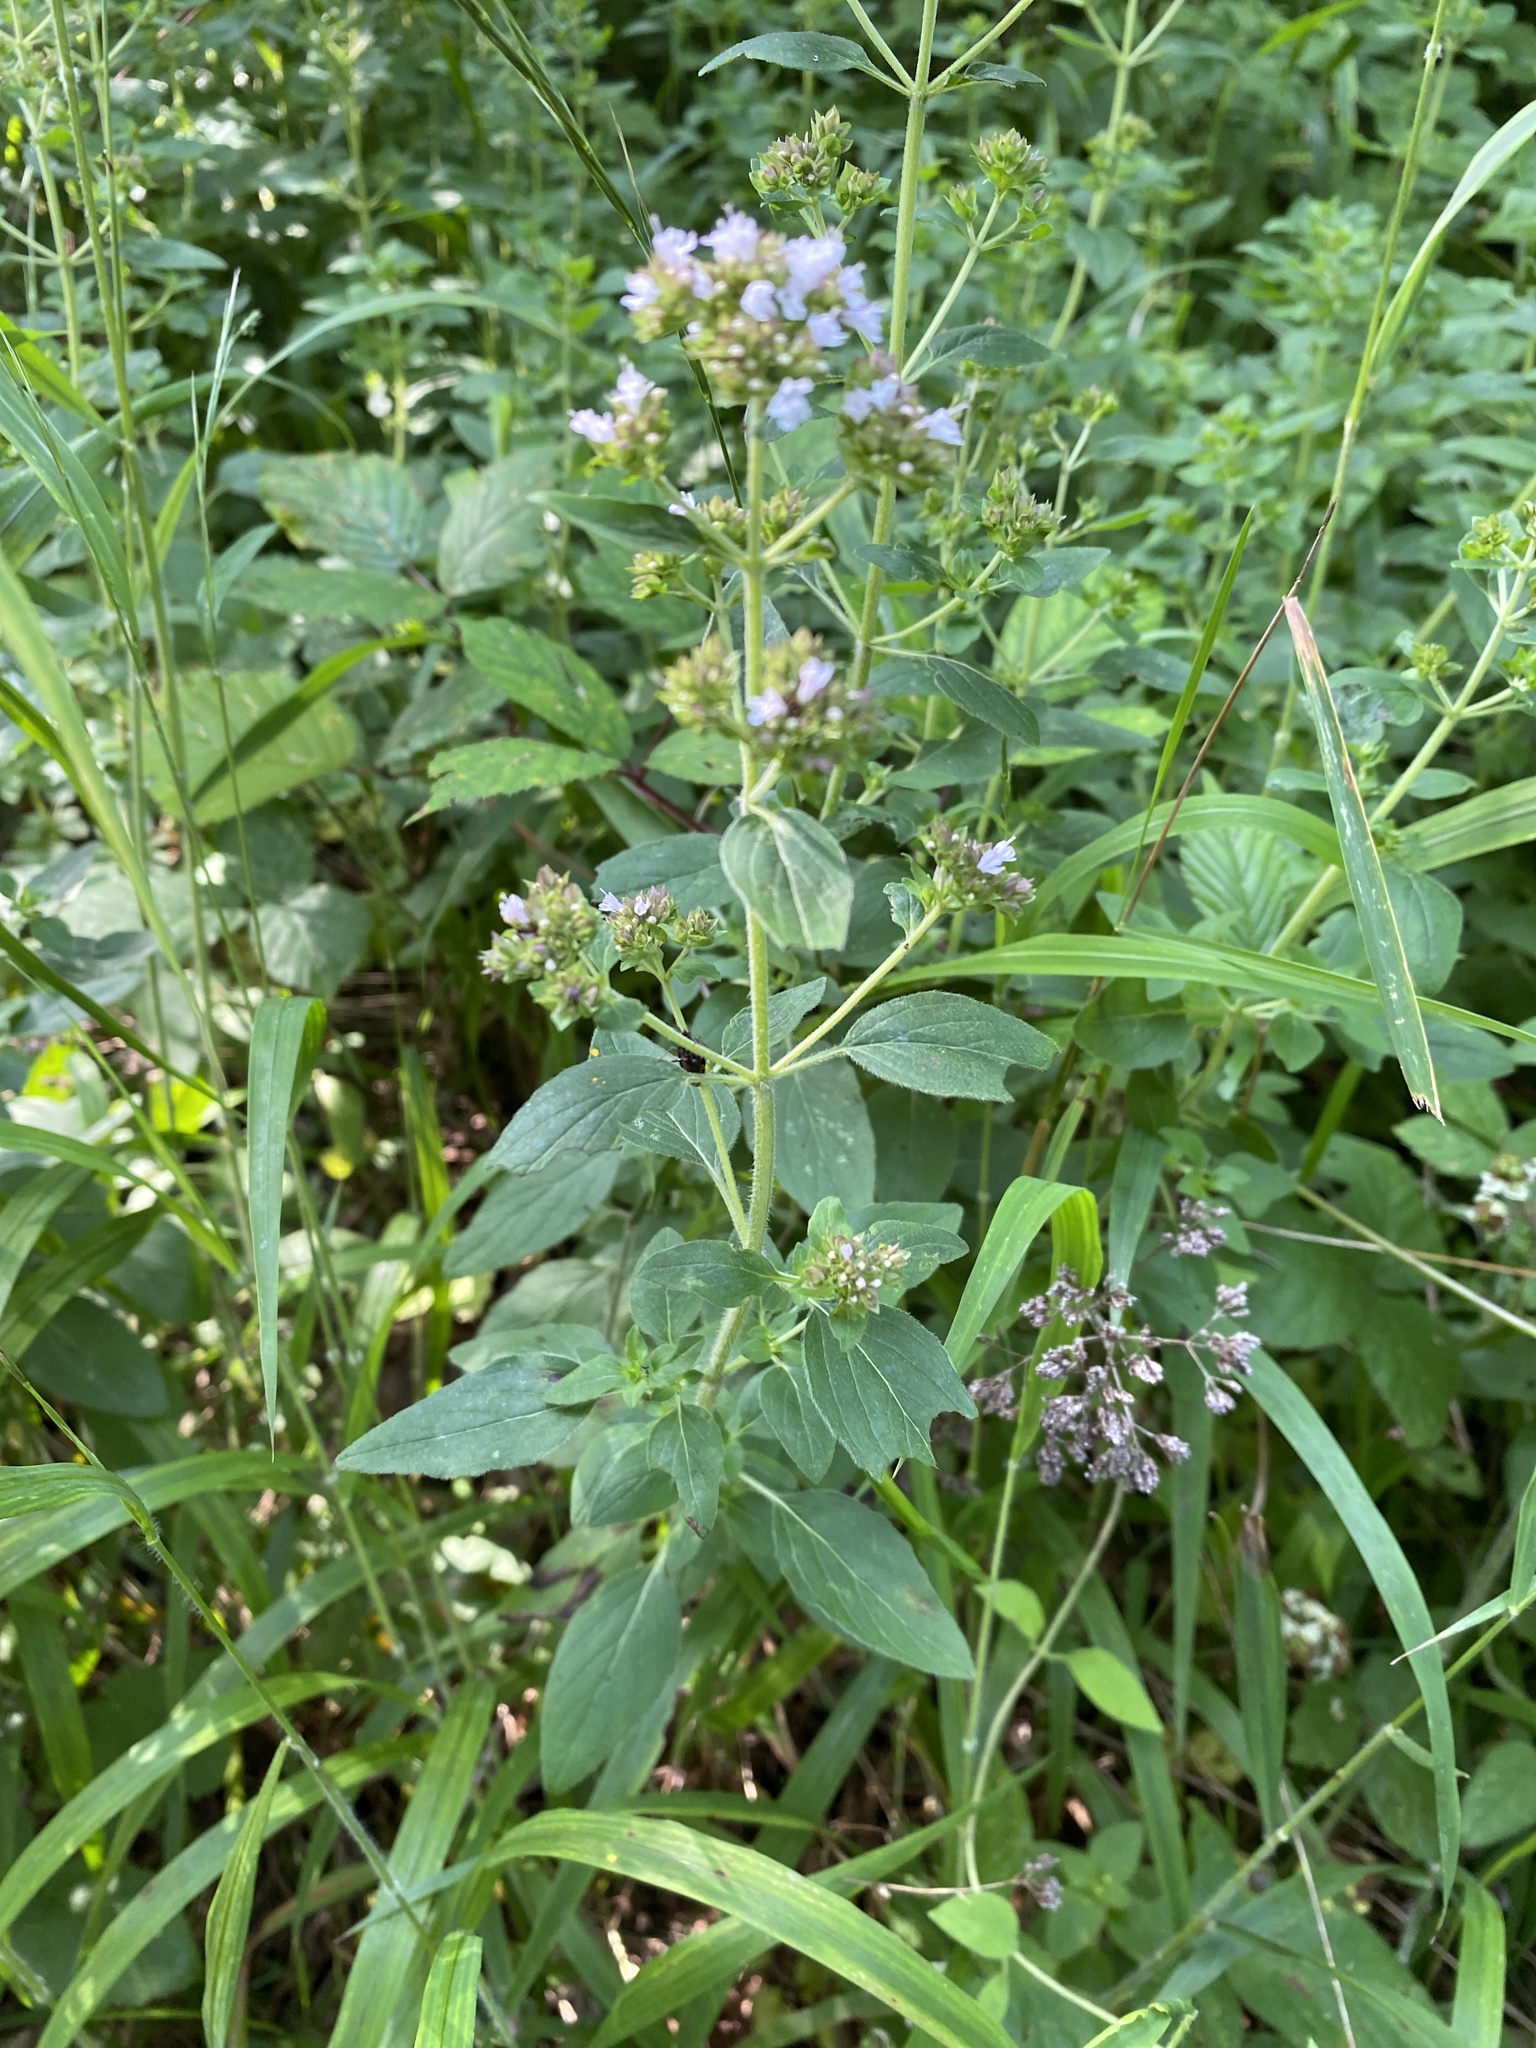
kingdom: Plantae
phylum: Tracheophyta
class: Magnoliopsida
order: Lamiales
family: Lamiaceae
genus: Origanum
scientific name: Origanum vulgare
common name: Wild marjoram
